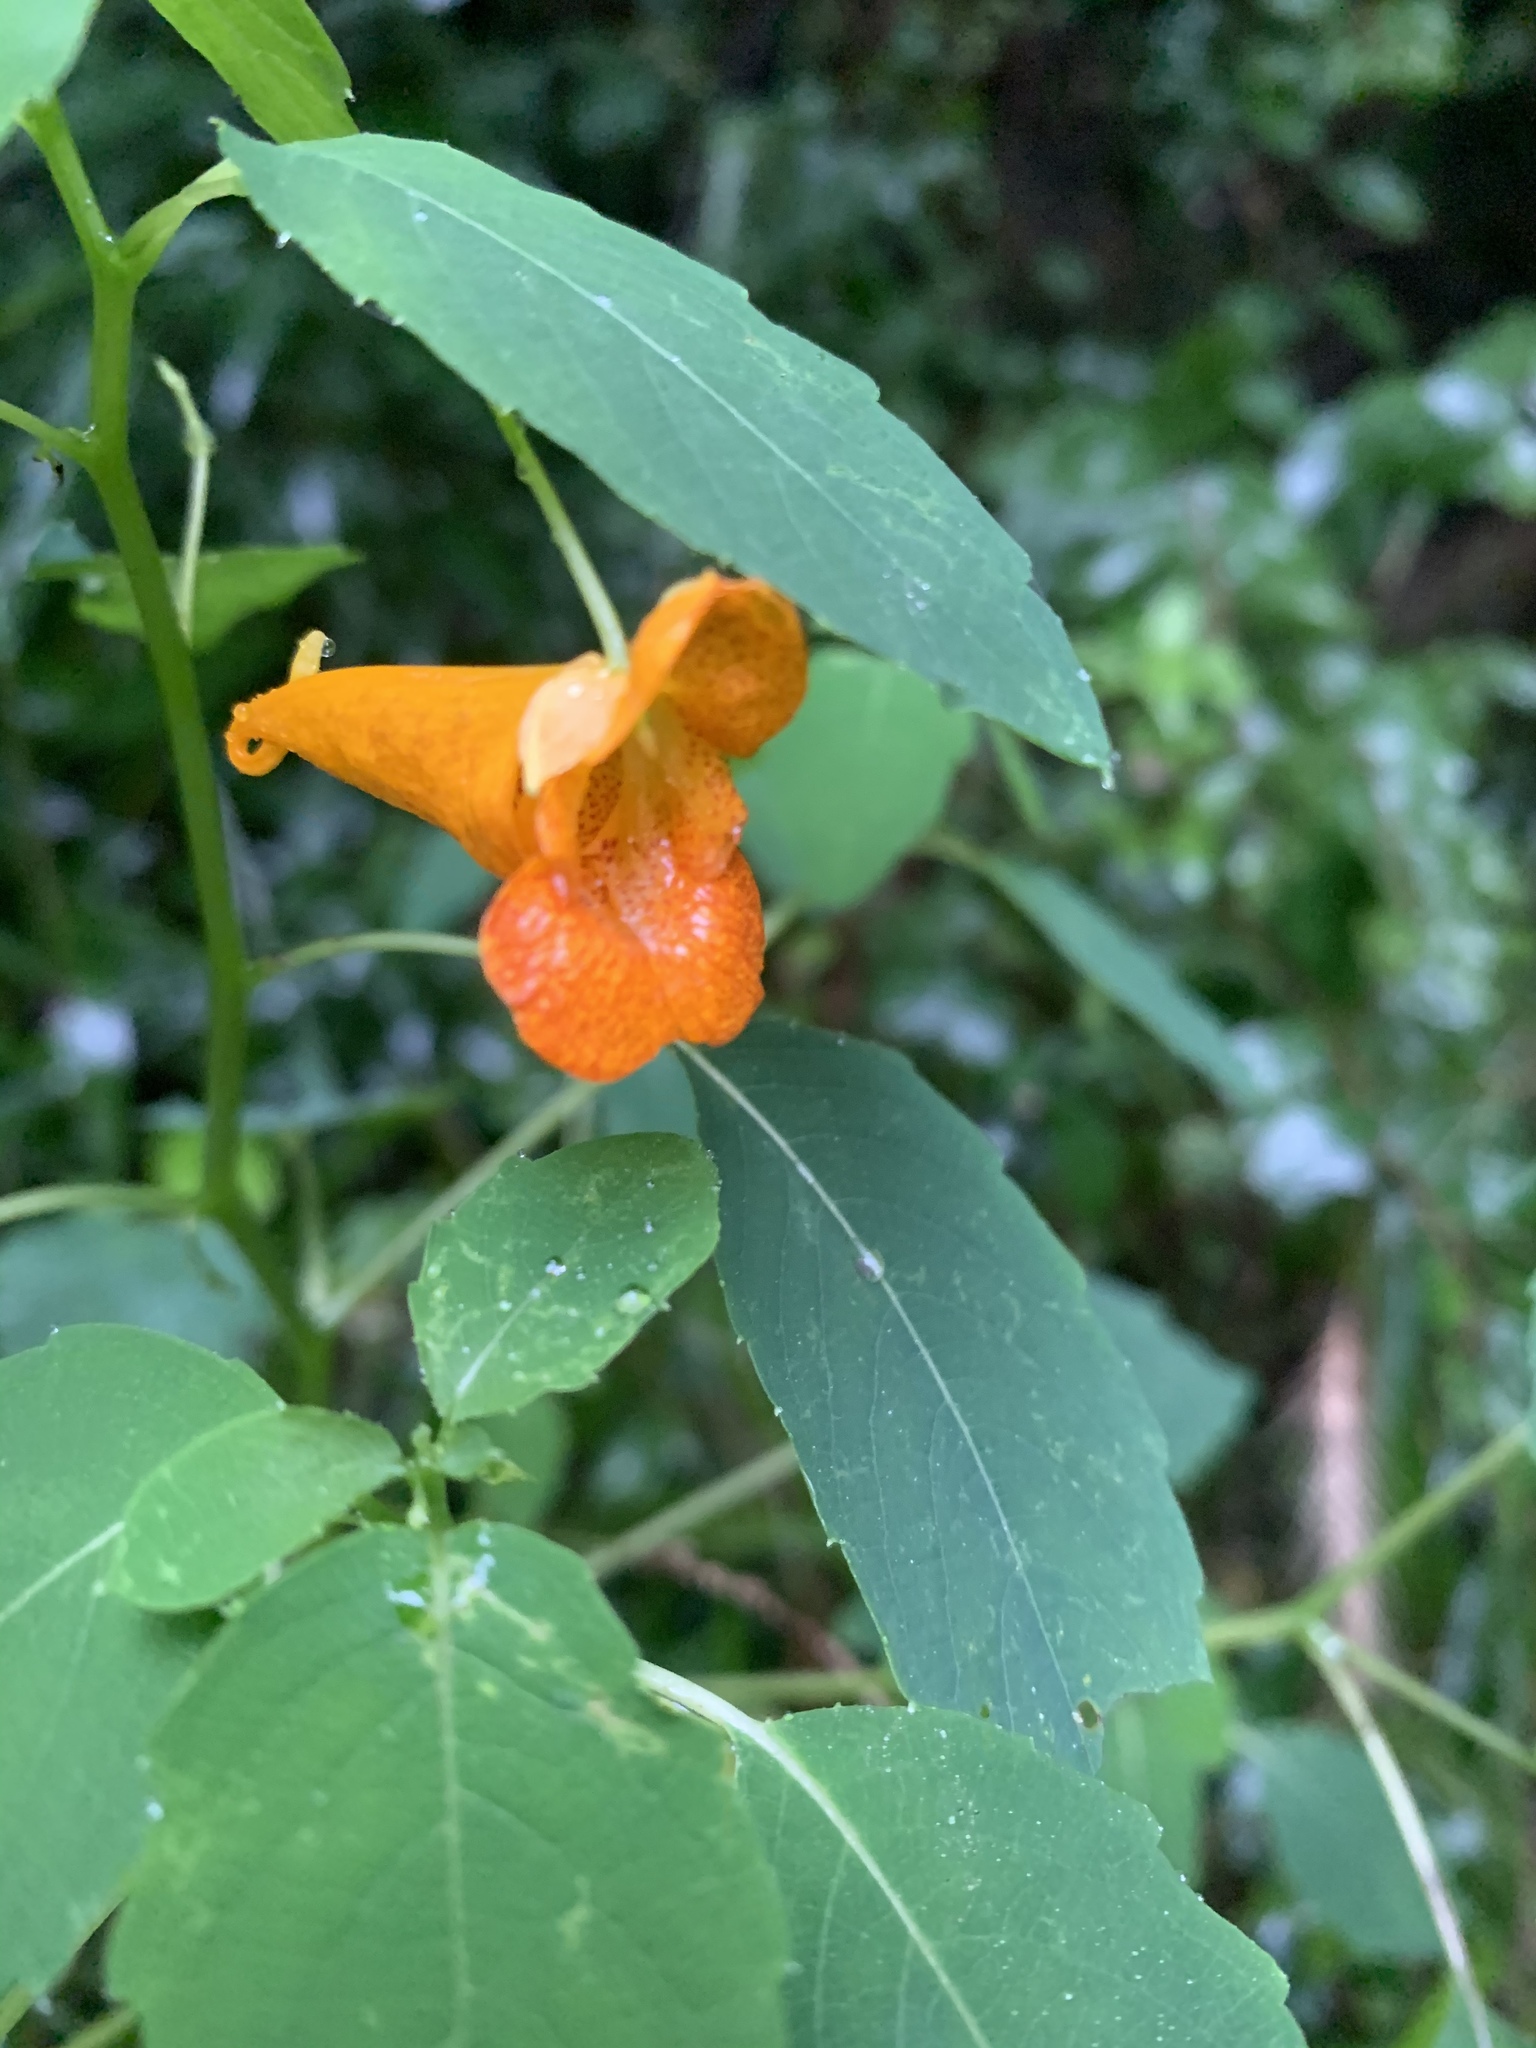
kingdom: Plantae
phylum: Tracheophyta
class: Magnoliopsida
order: Ericales
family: Balsaminaceae
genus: Impatiens
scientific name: Impatiens capensis
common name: Orange balsam
